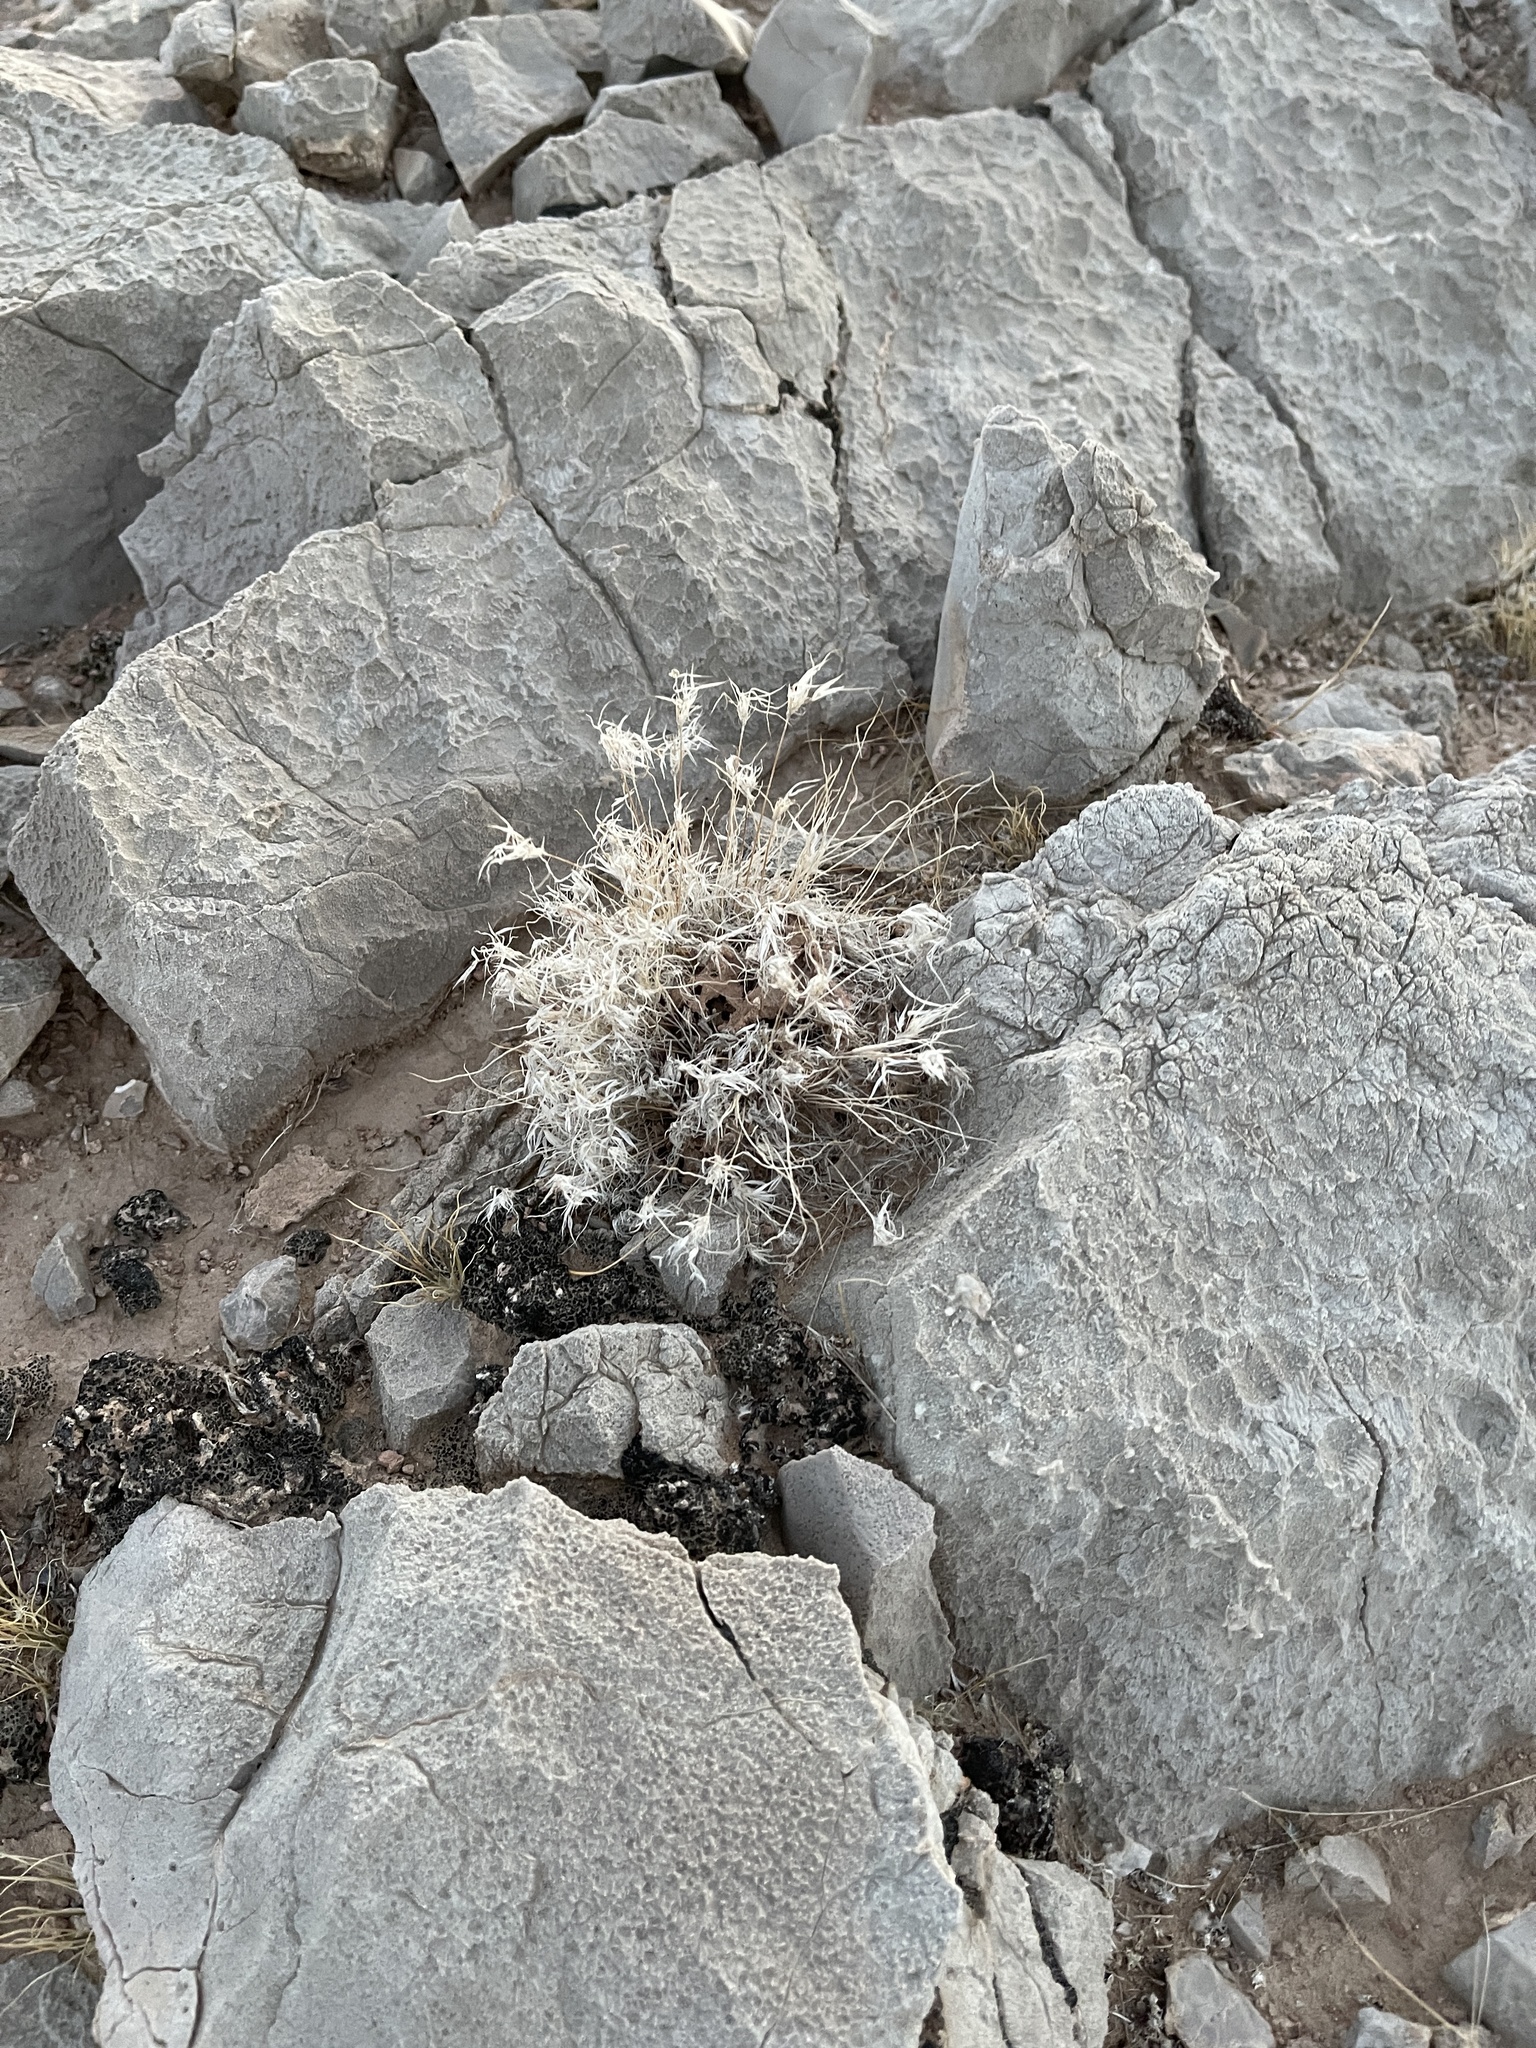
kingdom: Plantae
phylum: Tracheophyta
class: Liliopsida
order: Poales
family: Poaceae
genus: Dasyochloa
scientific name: Dasyochloa pulchella
